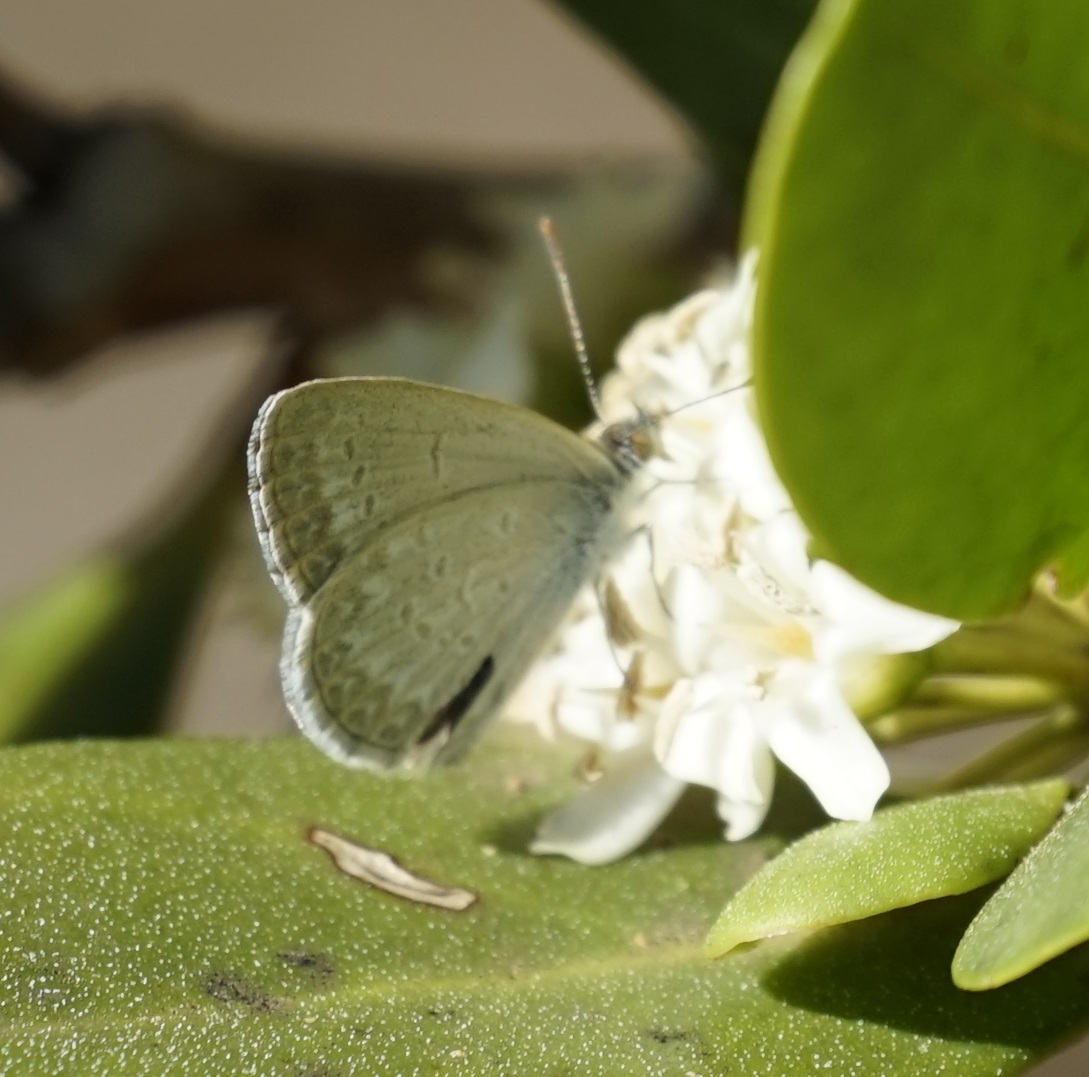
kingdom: Animalia
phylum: Arthropoda
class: Insecta
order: Lepidoptera
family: Lycaenidae
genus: Zizina
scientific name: Zizina labradus
